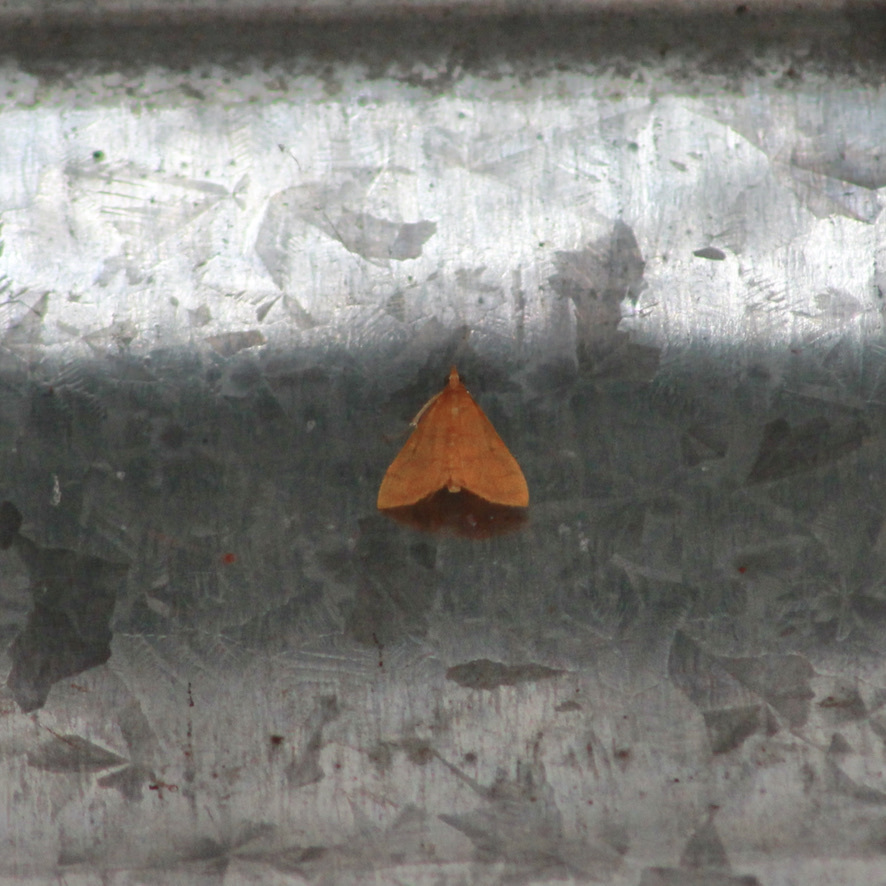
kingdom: Animalia
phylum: Arthropoda
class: Insecta
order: Lepidoptera
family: Crambidae
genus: Pyrausta
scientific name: Pyrausta insignitalis
